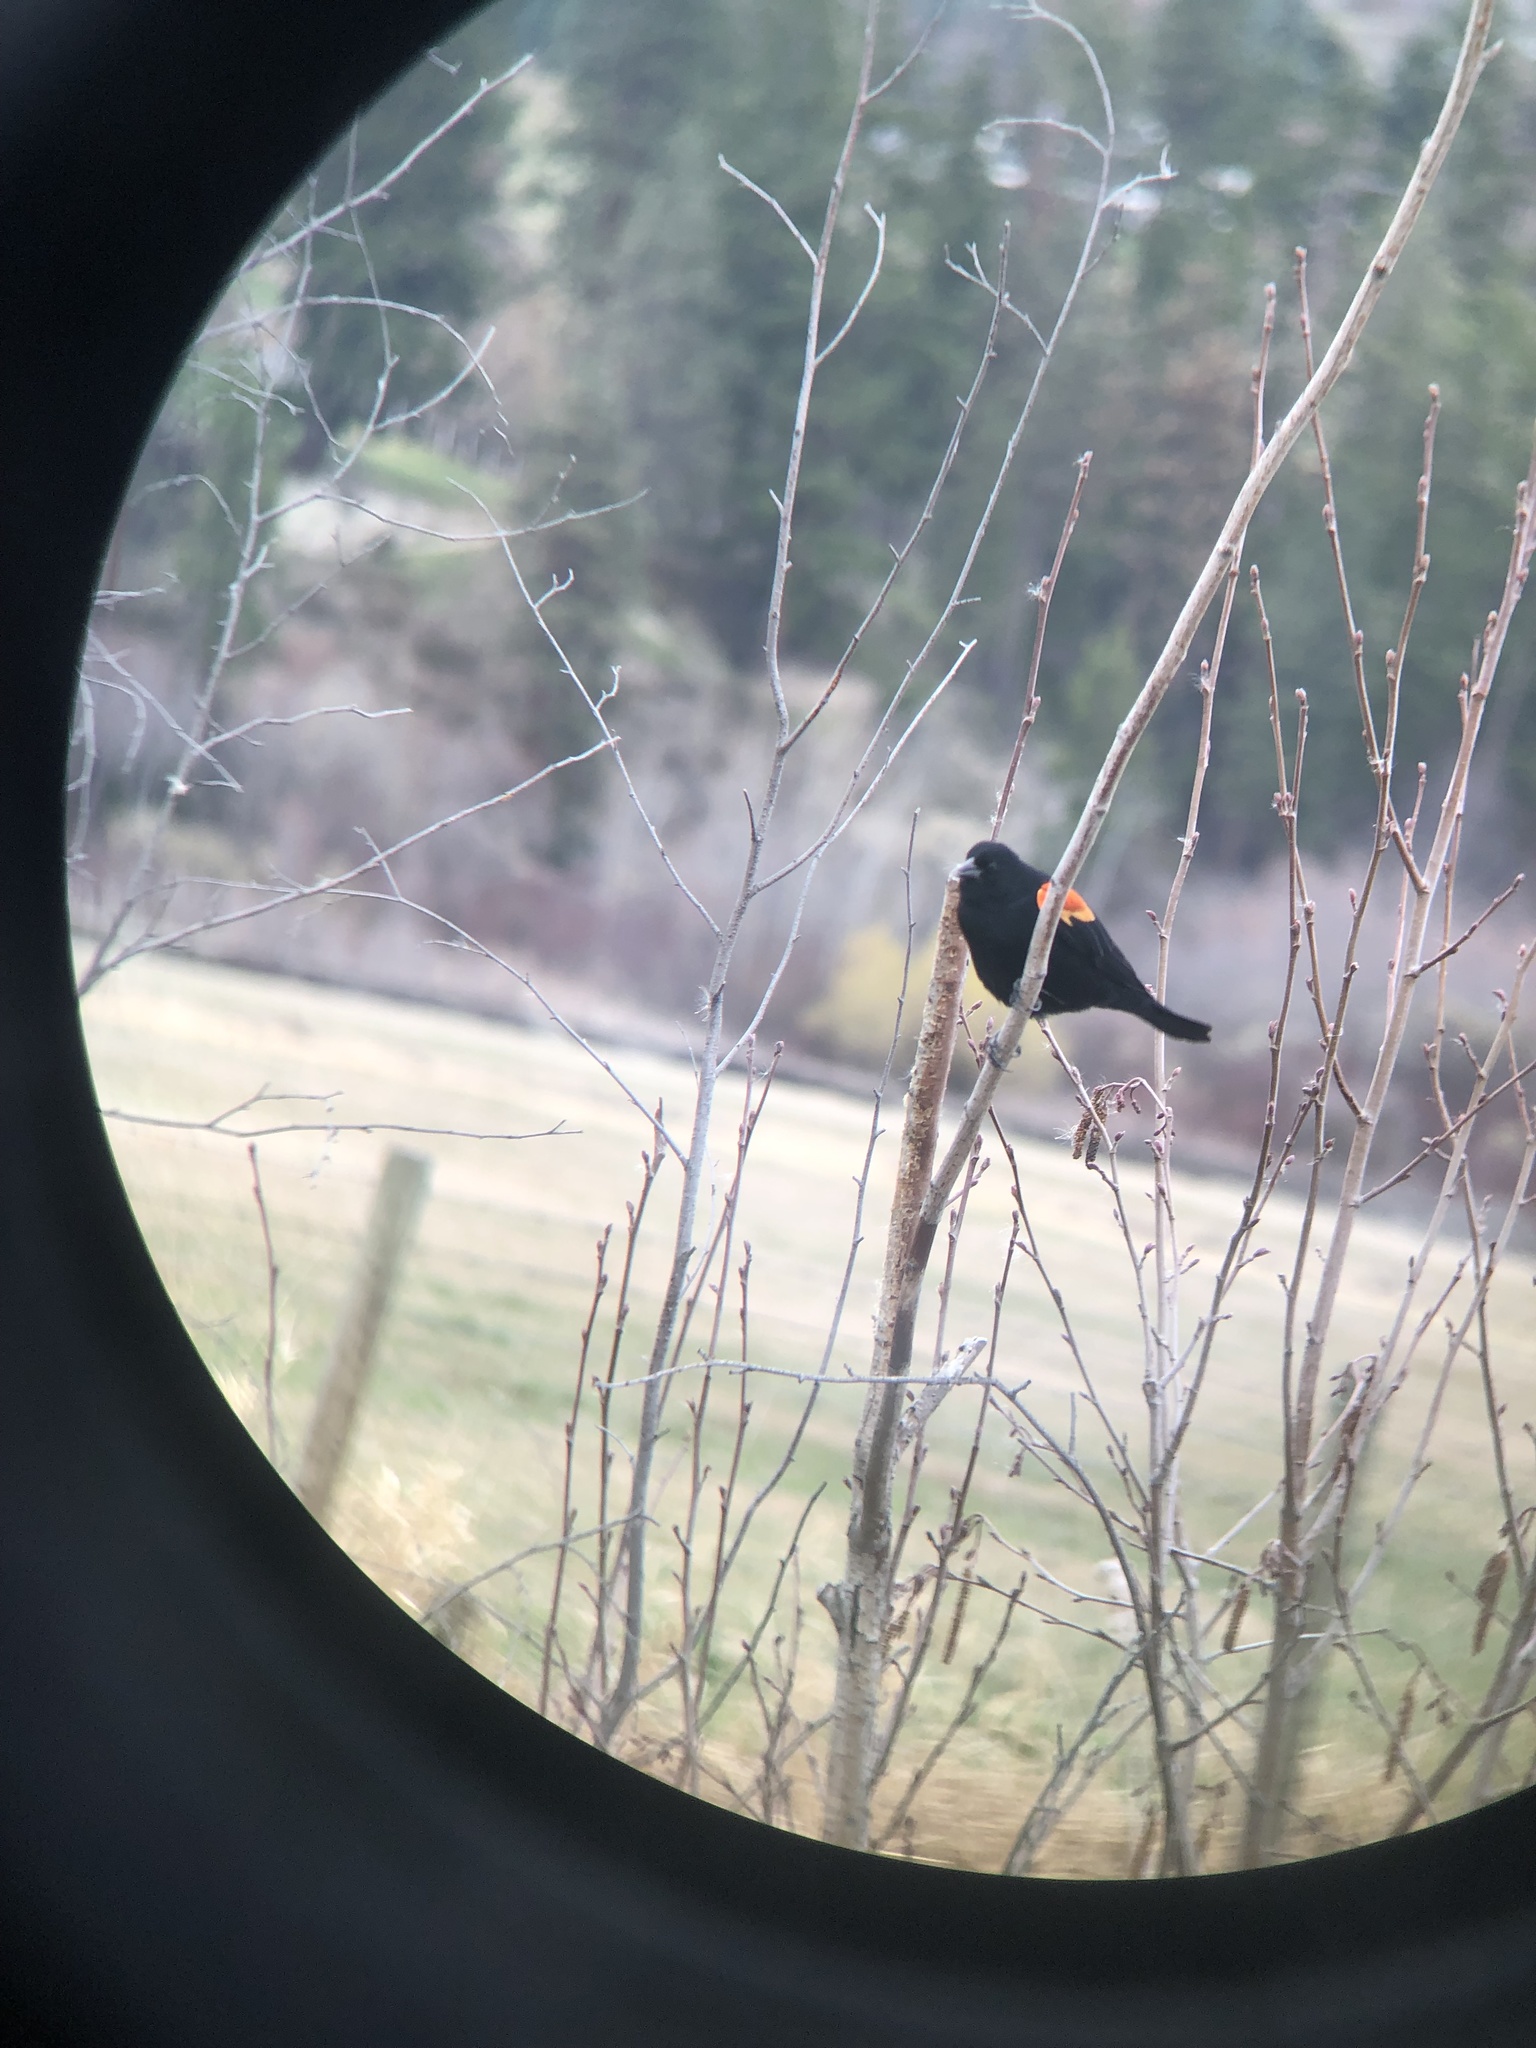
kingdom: Animalia
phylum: Chordata
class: Aves
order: Passeriformes
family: Icteridae
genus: Agelaius
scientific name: Agelaius phoeniceus
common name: Red-winged blackbird
